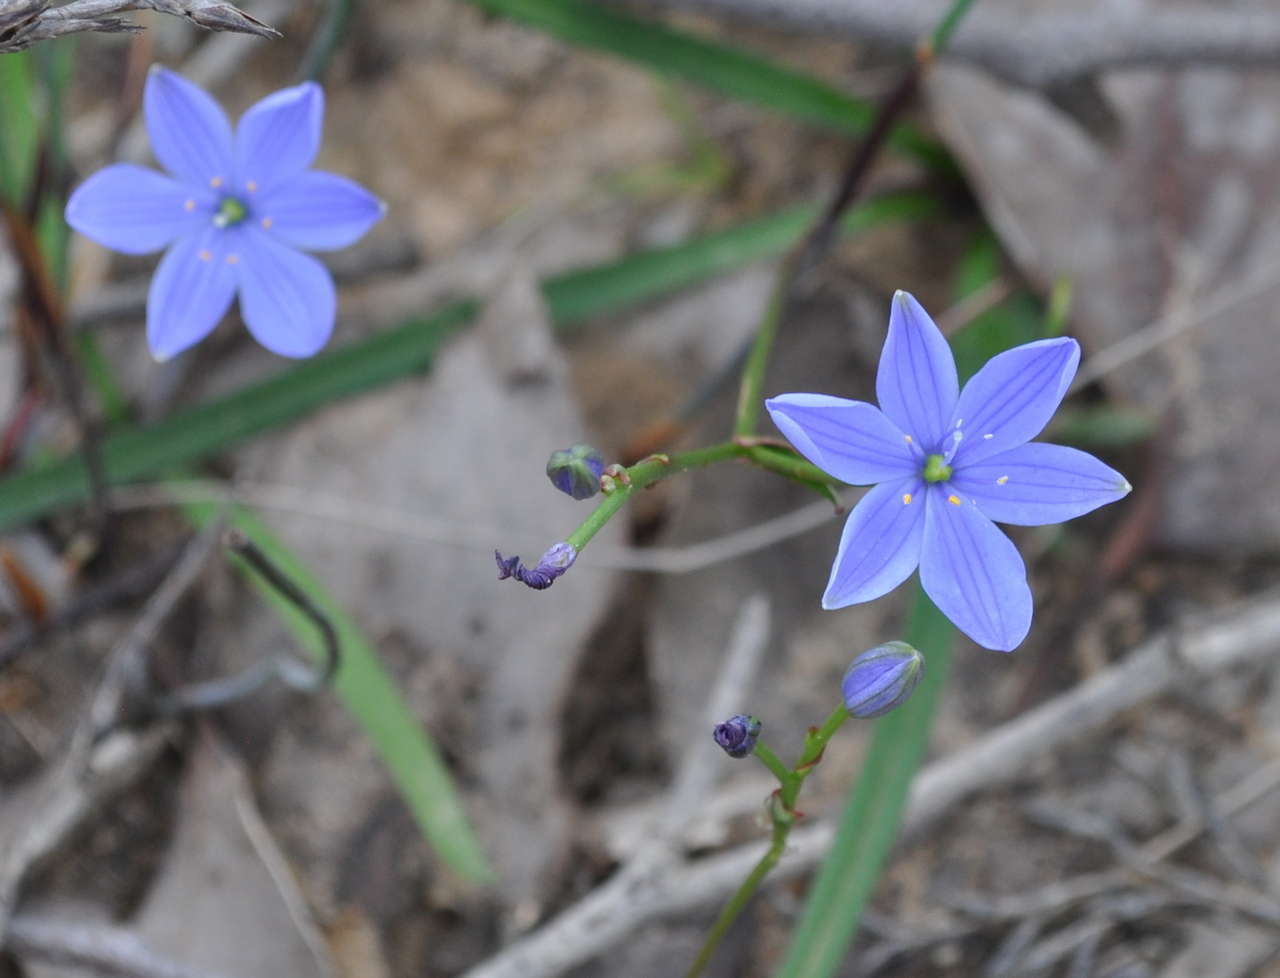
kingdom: Plantae
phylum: Tracheophyta
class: Liliopsida
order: Asparagales
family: Asphodelaceae
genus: Chamaescilla
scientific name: Chamaescilla corymbosa
